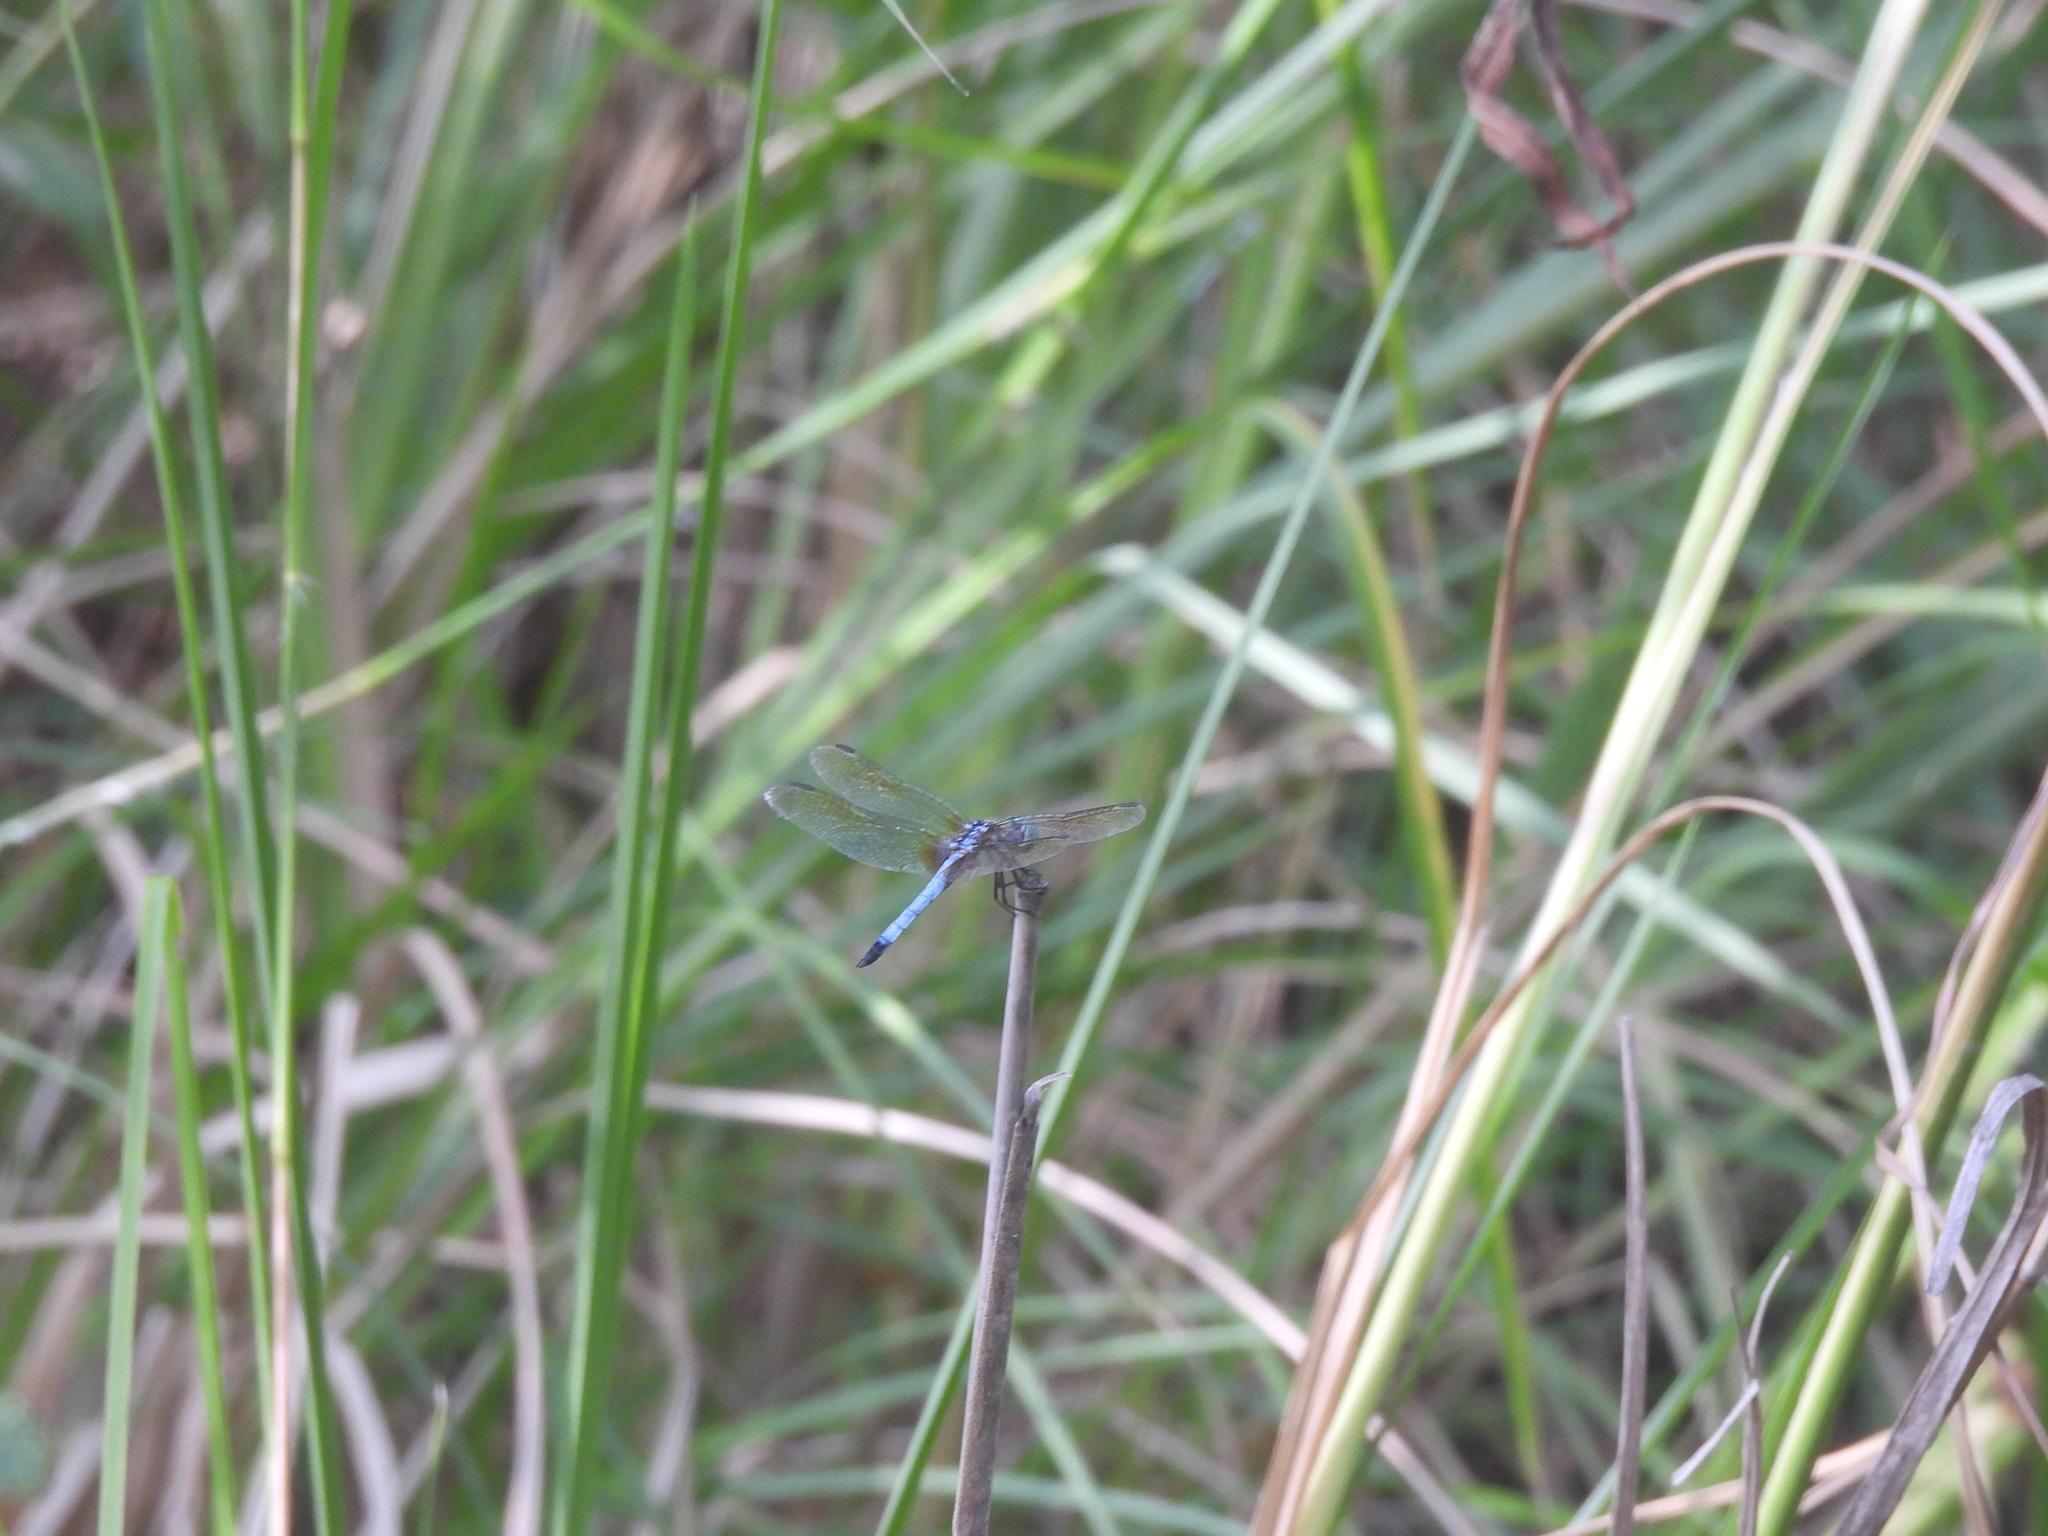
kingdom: Animalia
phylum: Arthropoda
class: Insecta
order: Odonata
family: Libellulidae
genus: Pachydiplax
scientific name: Pachydiplax longipennis
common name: Blue dasher
